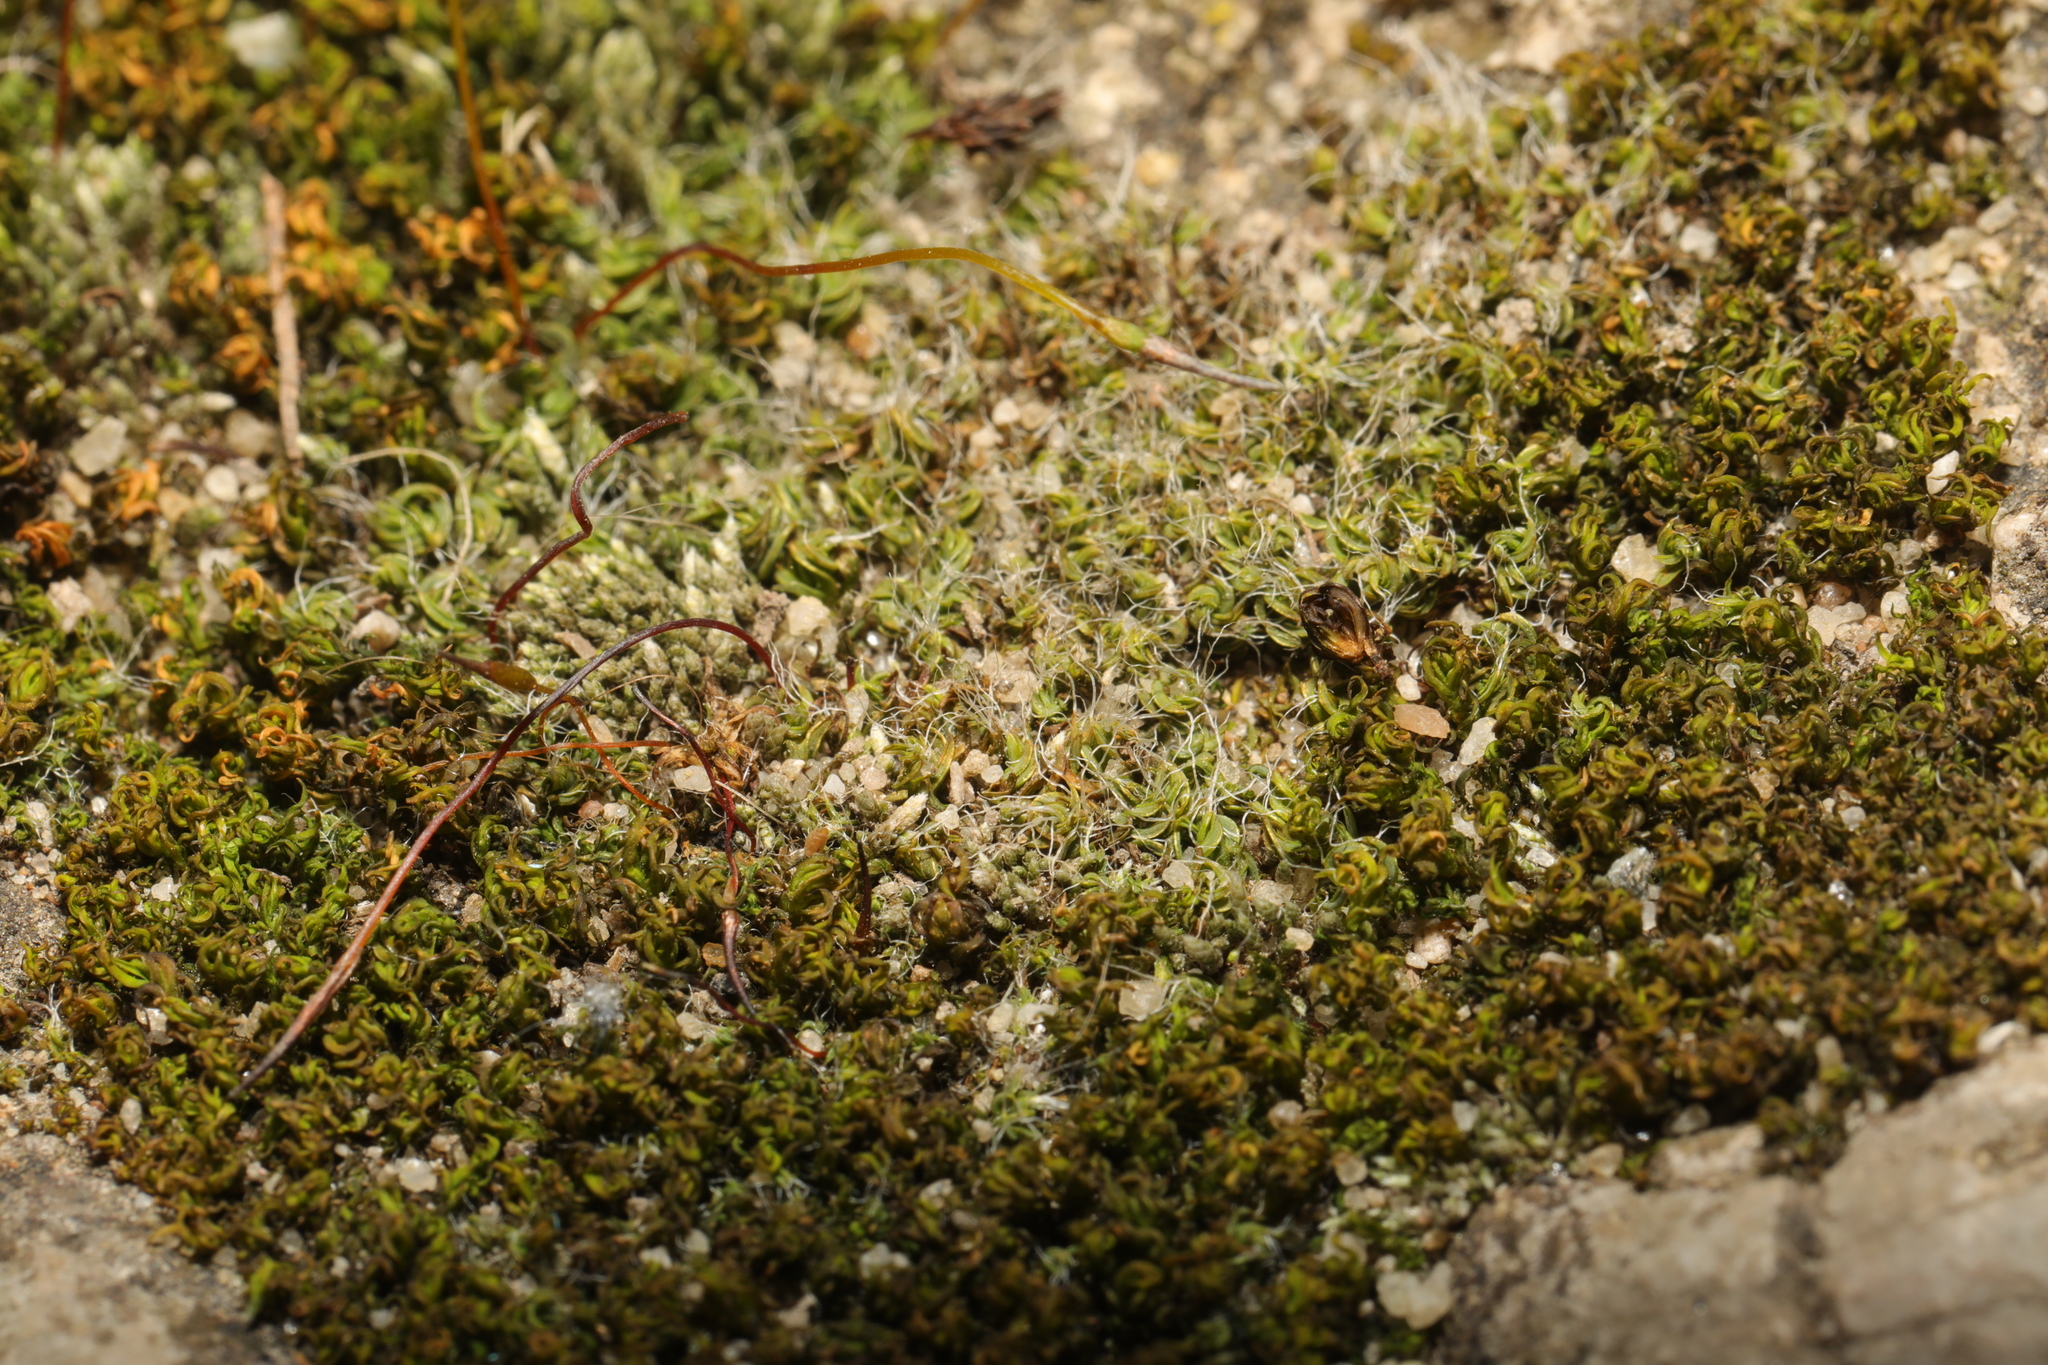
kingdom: Plantae
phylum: Bryophyta
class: Bryopsida
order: Pottiales
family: Pottiaceae
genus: Tortula
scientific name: Tortula muralis
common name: Wall screw-moss
